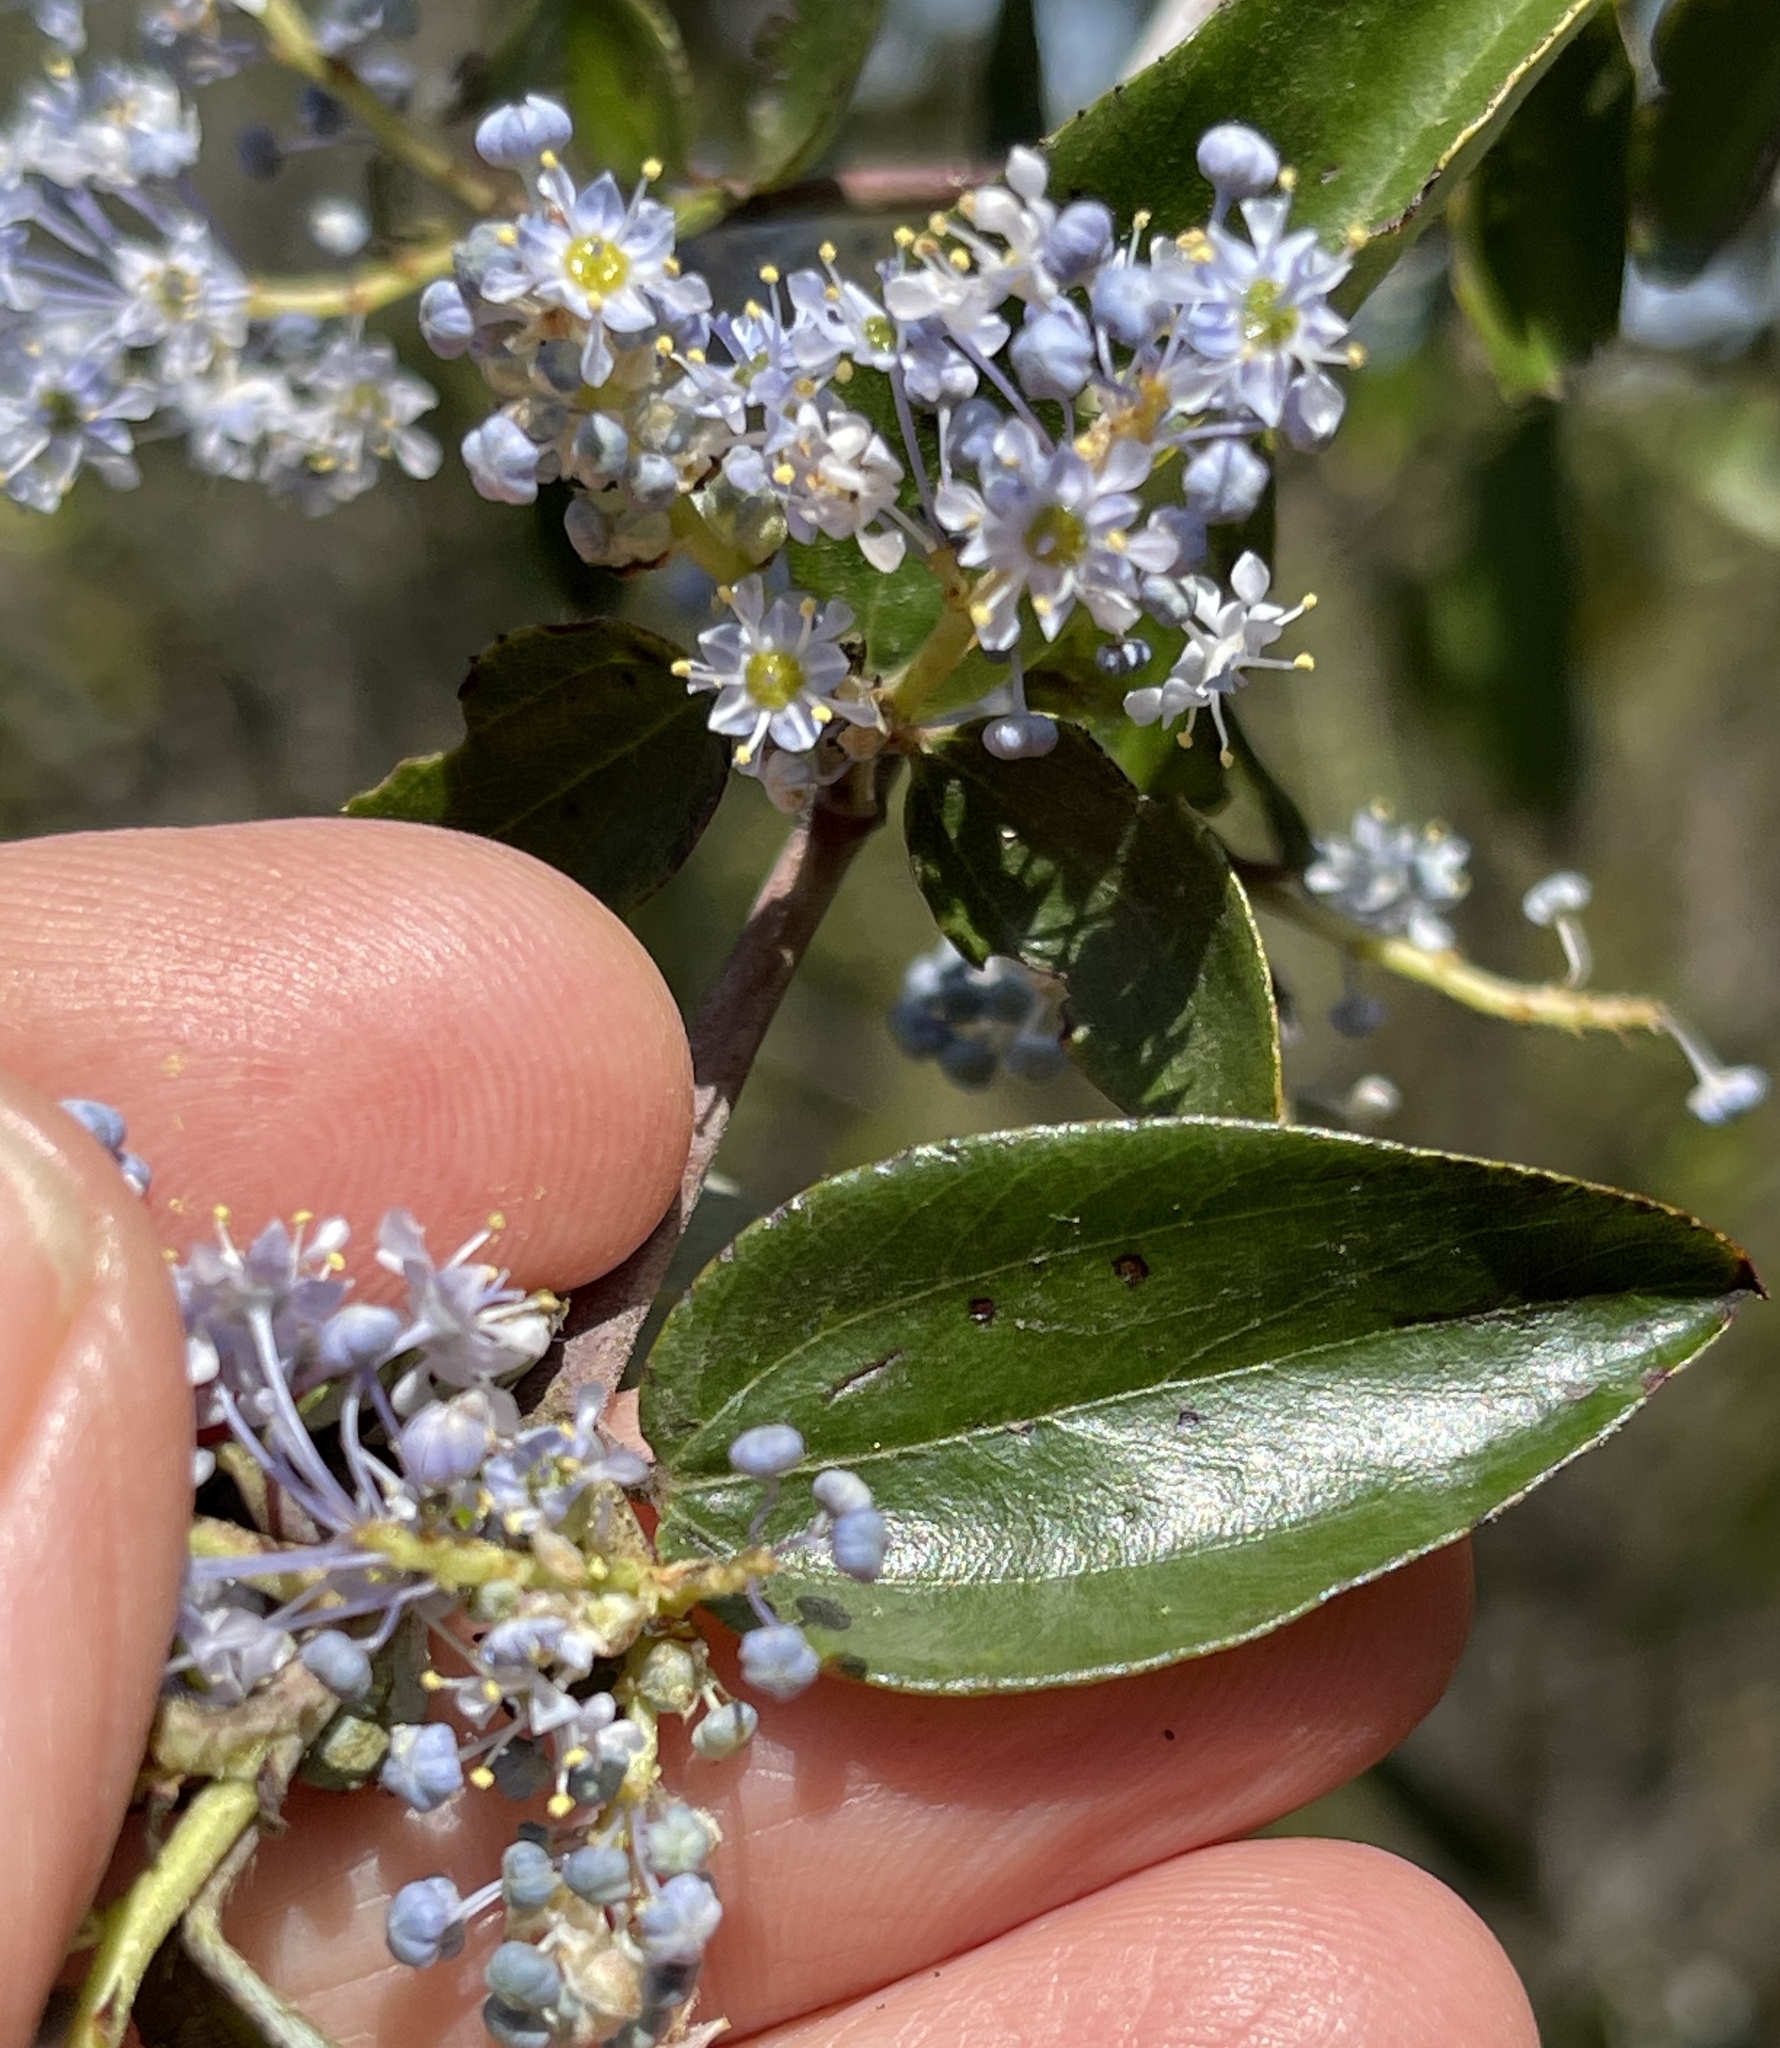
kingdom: Plantae
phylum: Tracheophyta
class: Magnoliopsida
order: Rosales
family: Rhamnaceae
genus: Ceanothus
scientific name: Ceanothus oliganthus
